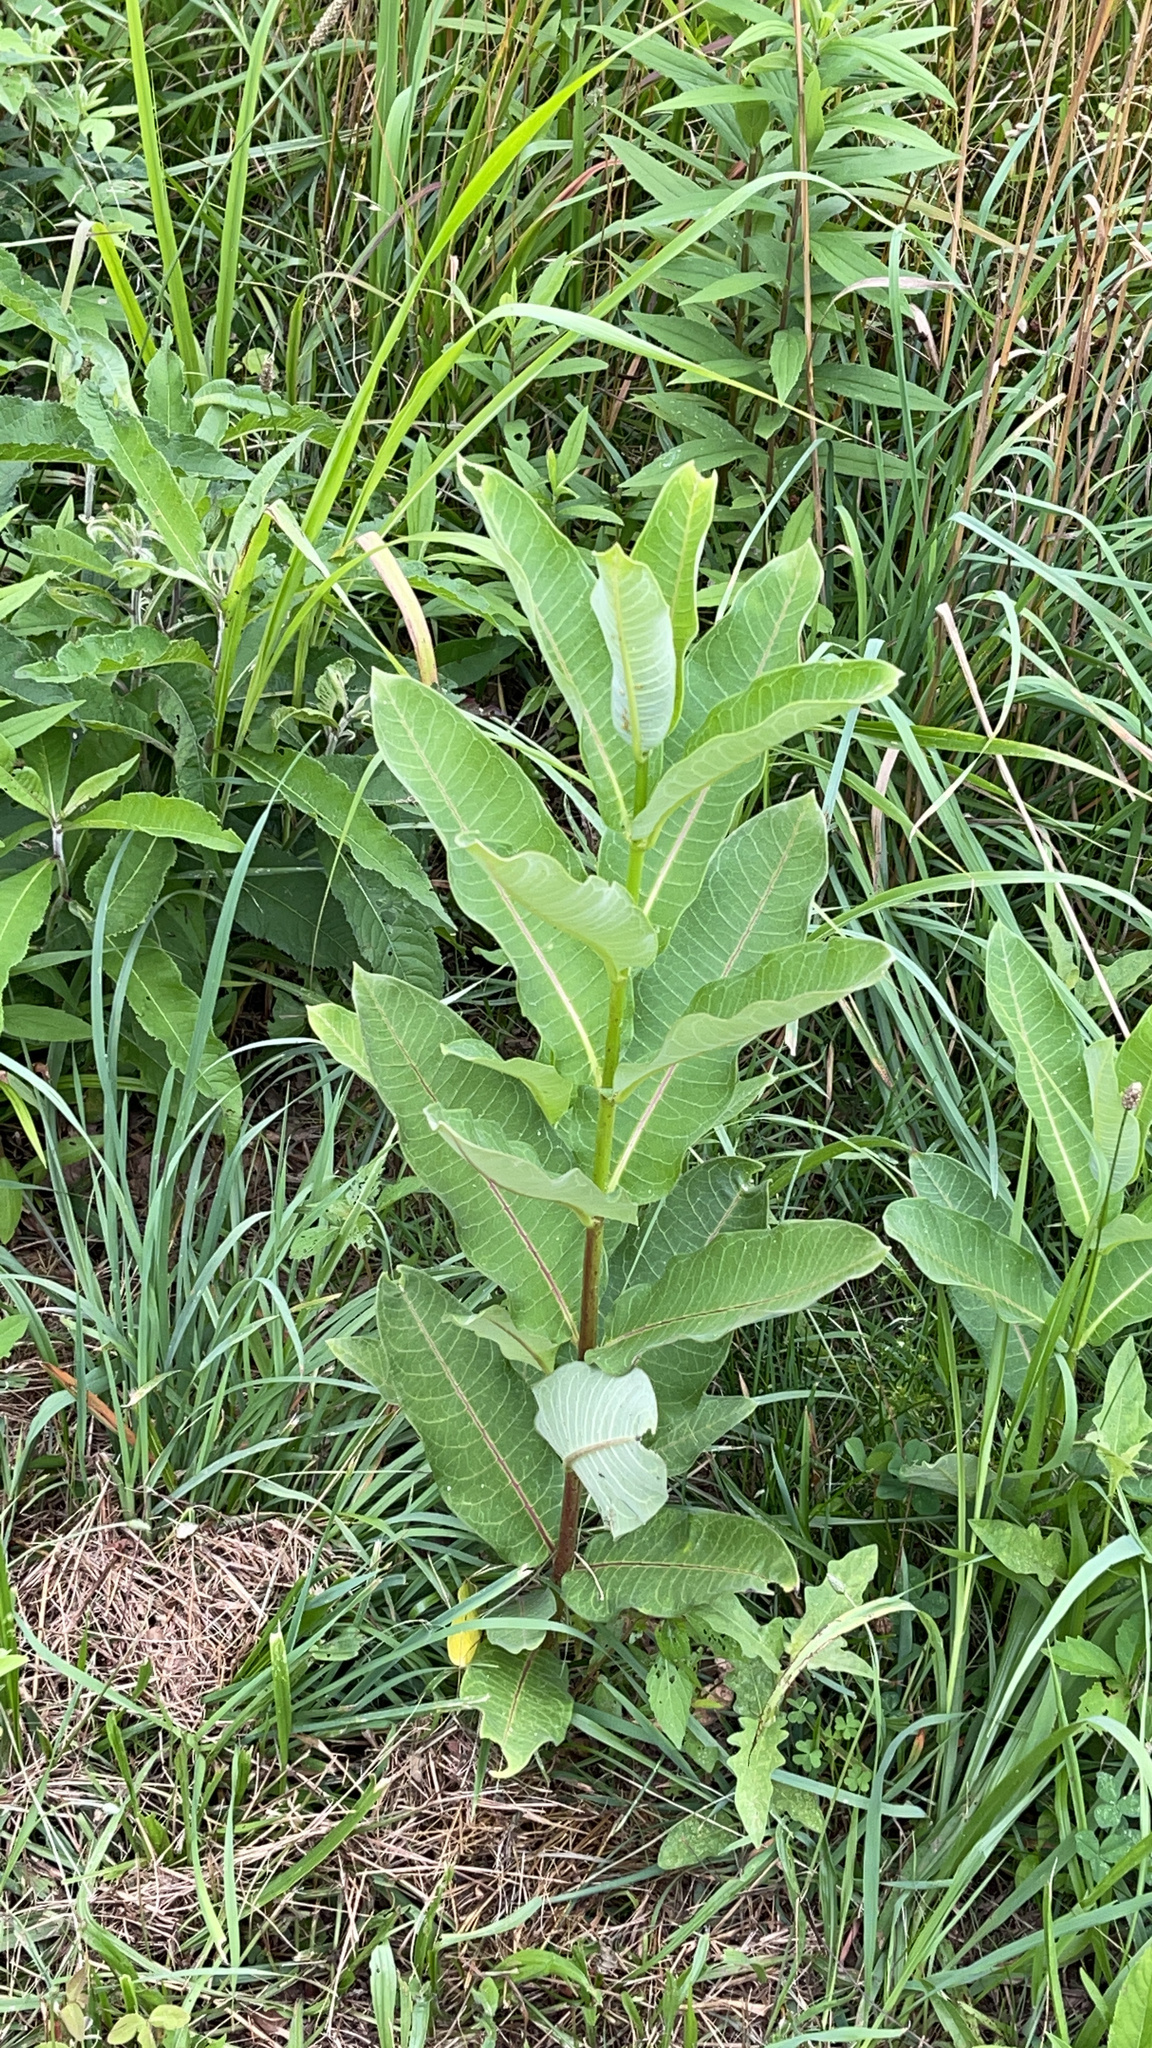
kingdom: Plantae
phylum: Tracheophyta
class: Magnoliopsida
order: Gentianales
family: Apocynaceae
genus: Asclepias
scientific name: Asclepias syriaca
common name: Common milkweed
